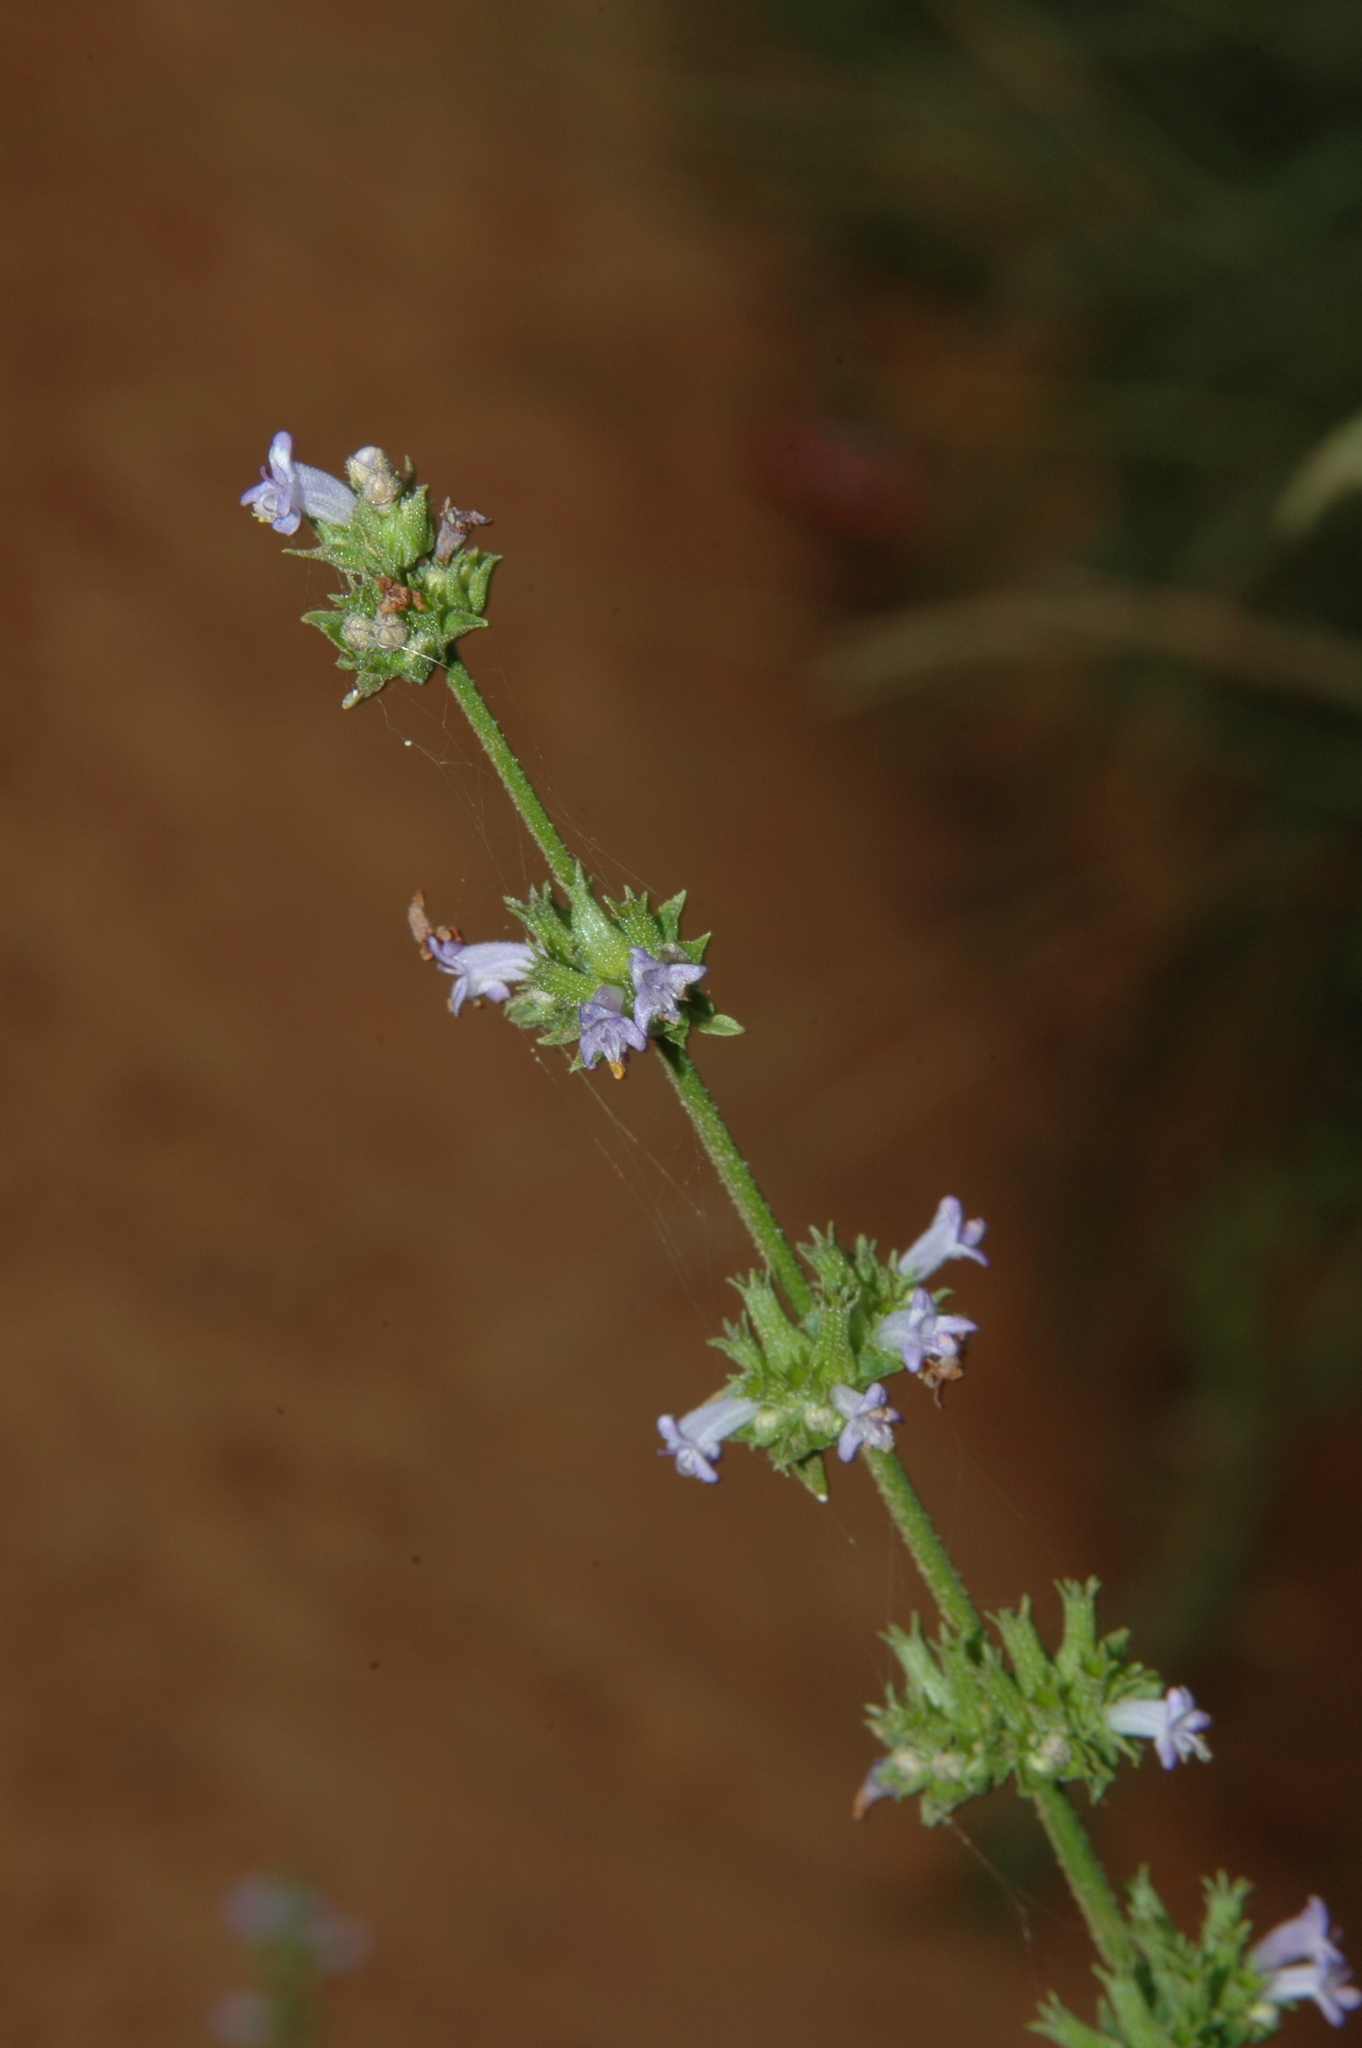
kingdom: Plantae
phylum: Tracheophyta
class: Magnoliopsida
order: Lamiales
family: Lamiaceae
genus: Cantinoa
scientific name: Cantinoa mutabilis
